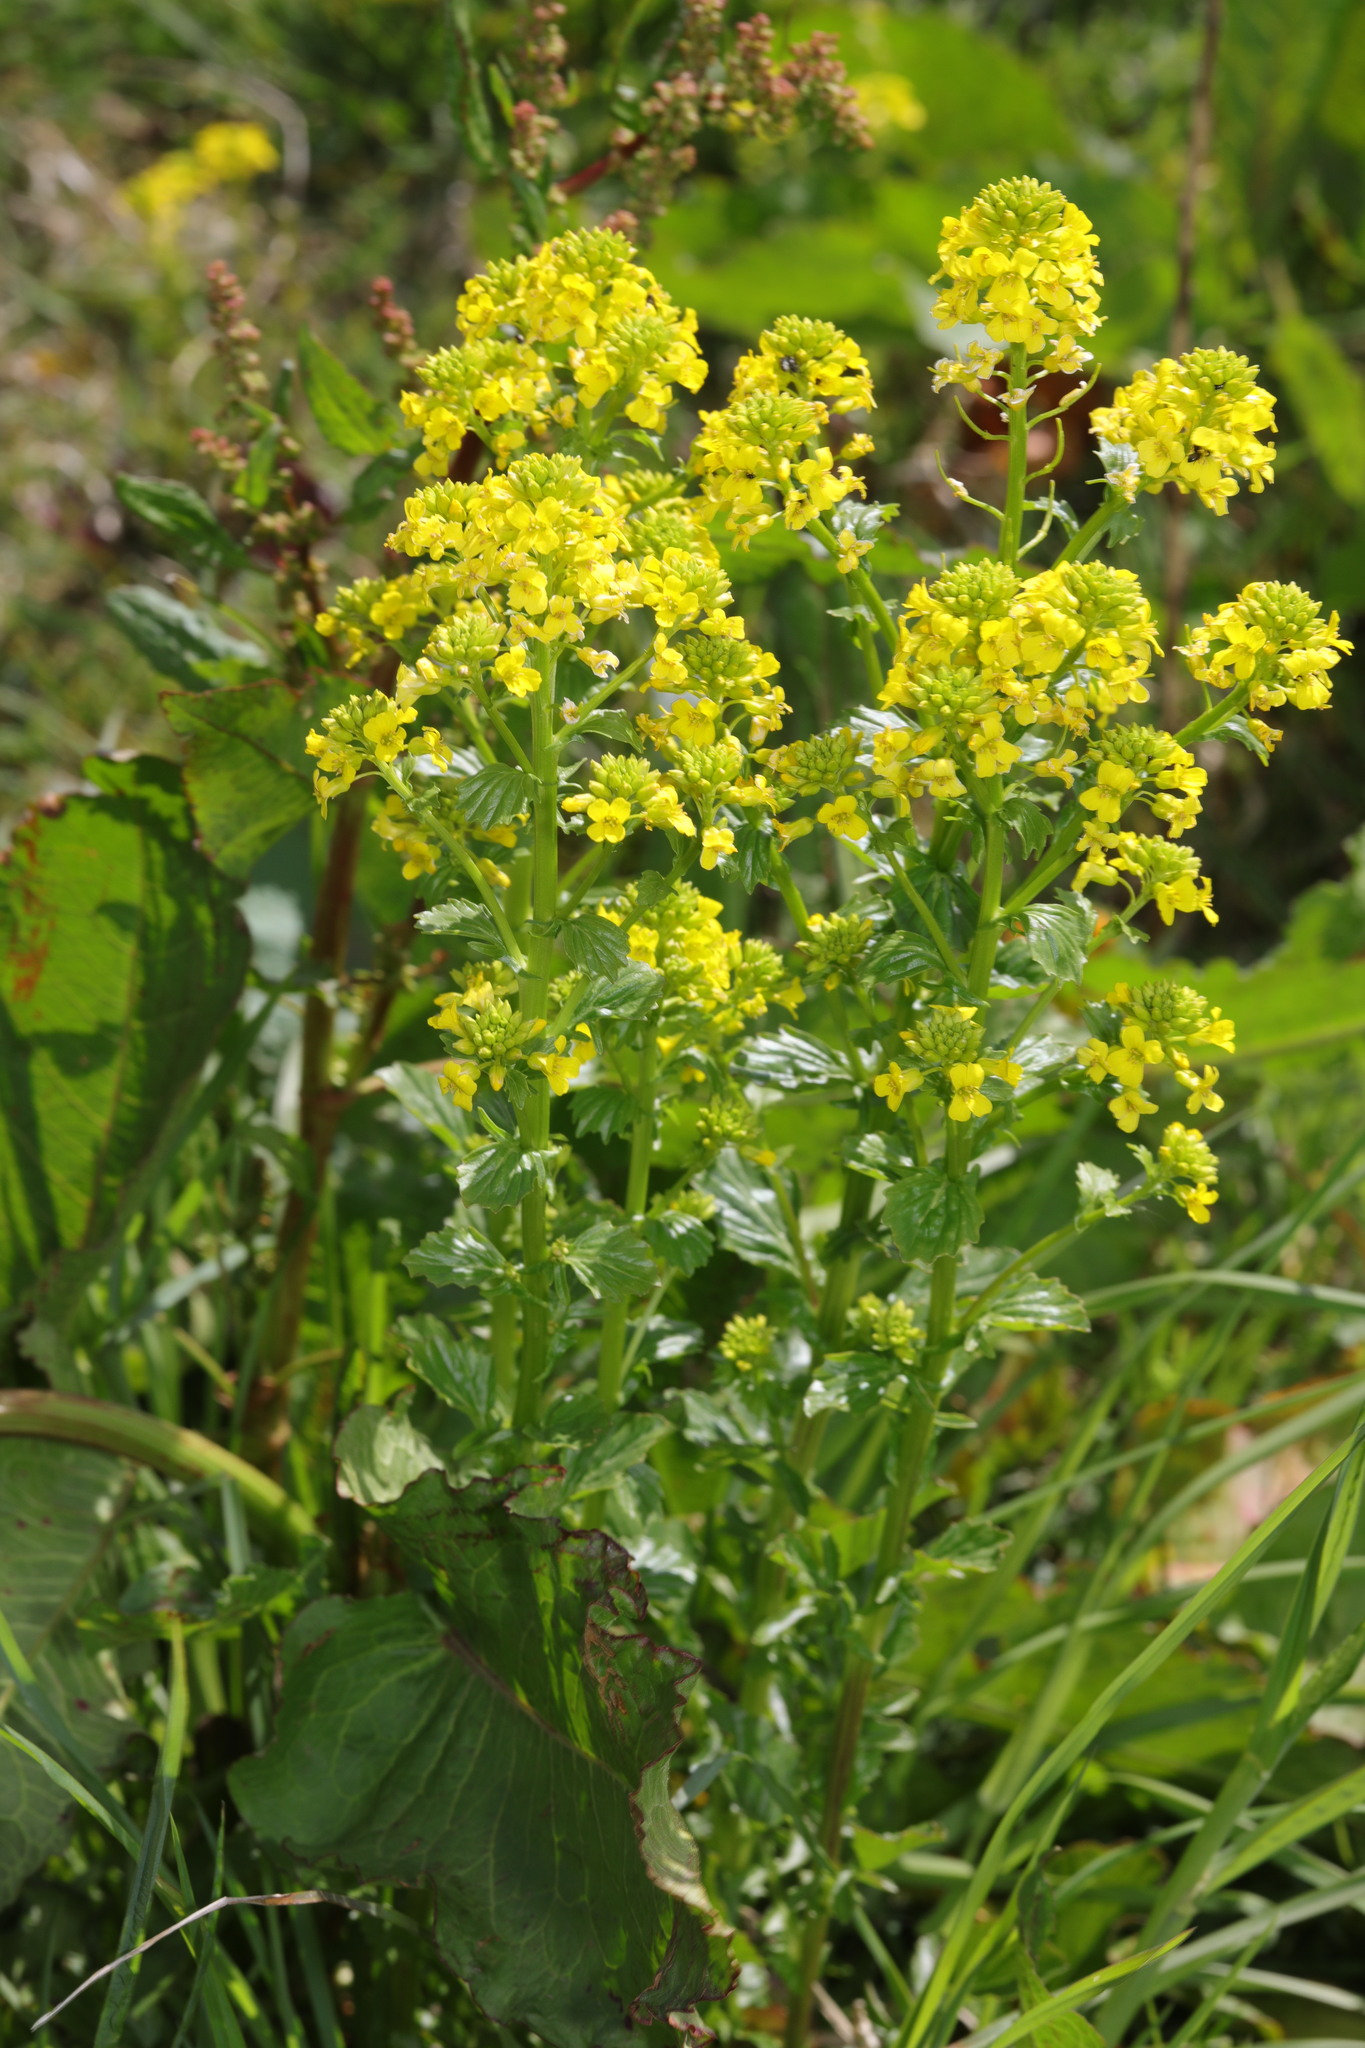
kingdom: Plantae
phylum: Tracheophyta
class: Magnoliopsida
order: Brassicales
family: Brassicaceae
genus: Barbarea
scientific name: Barbarea vulgaris
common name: Cressy-greens
